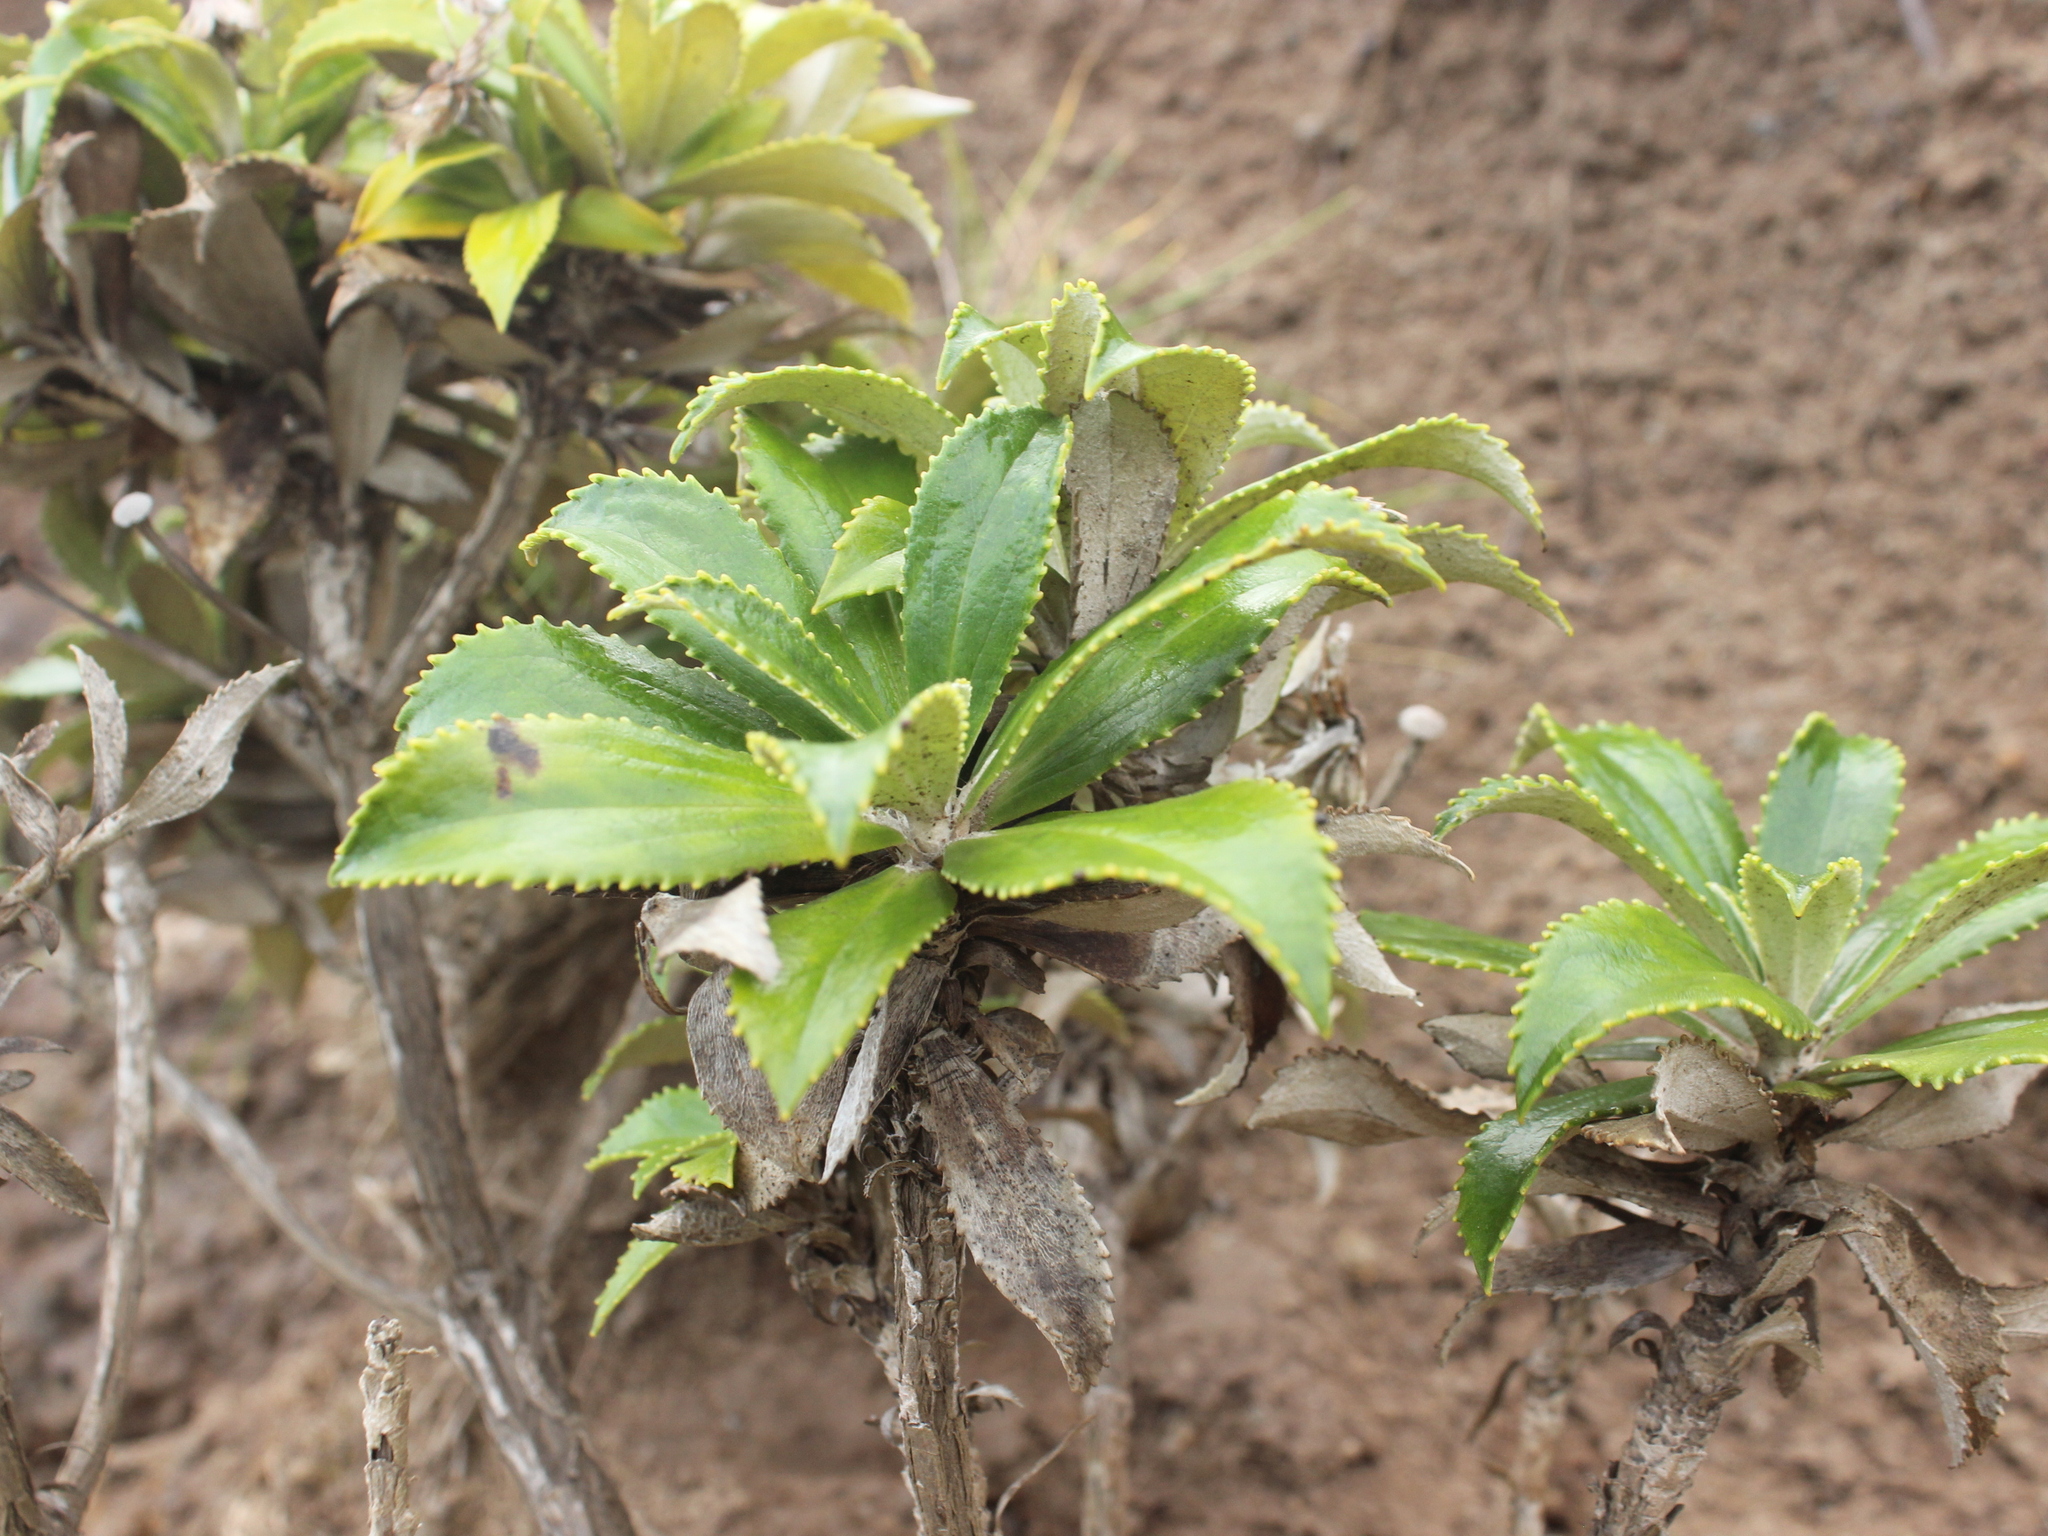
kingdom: Plantae
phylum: Tracheophyta
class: Magnoliopsida
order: Asterales
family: Asteraceae
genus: Macrolearia
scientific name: Macrolearia chathamica
